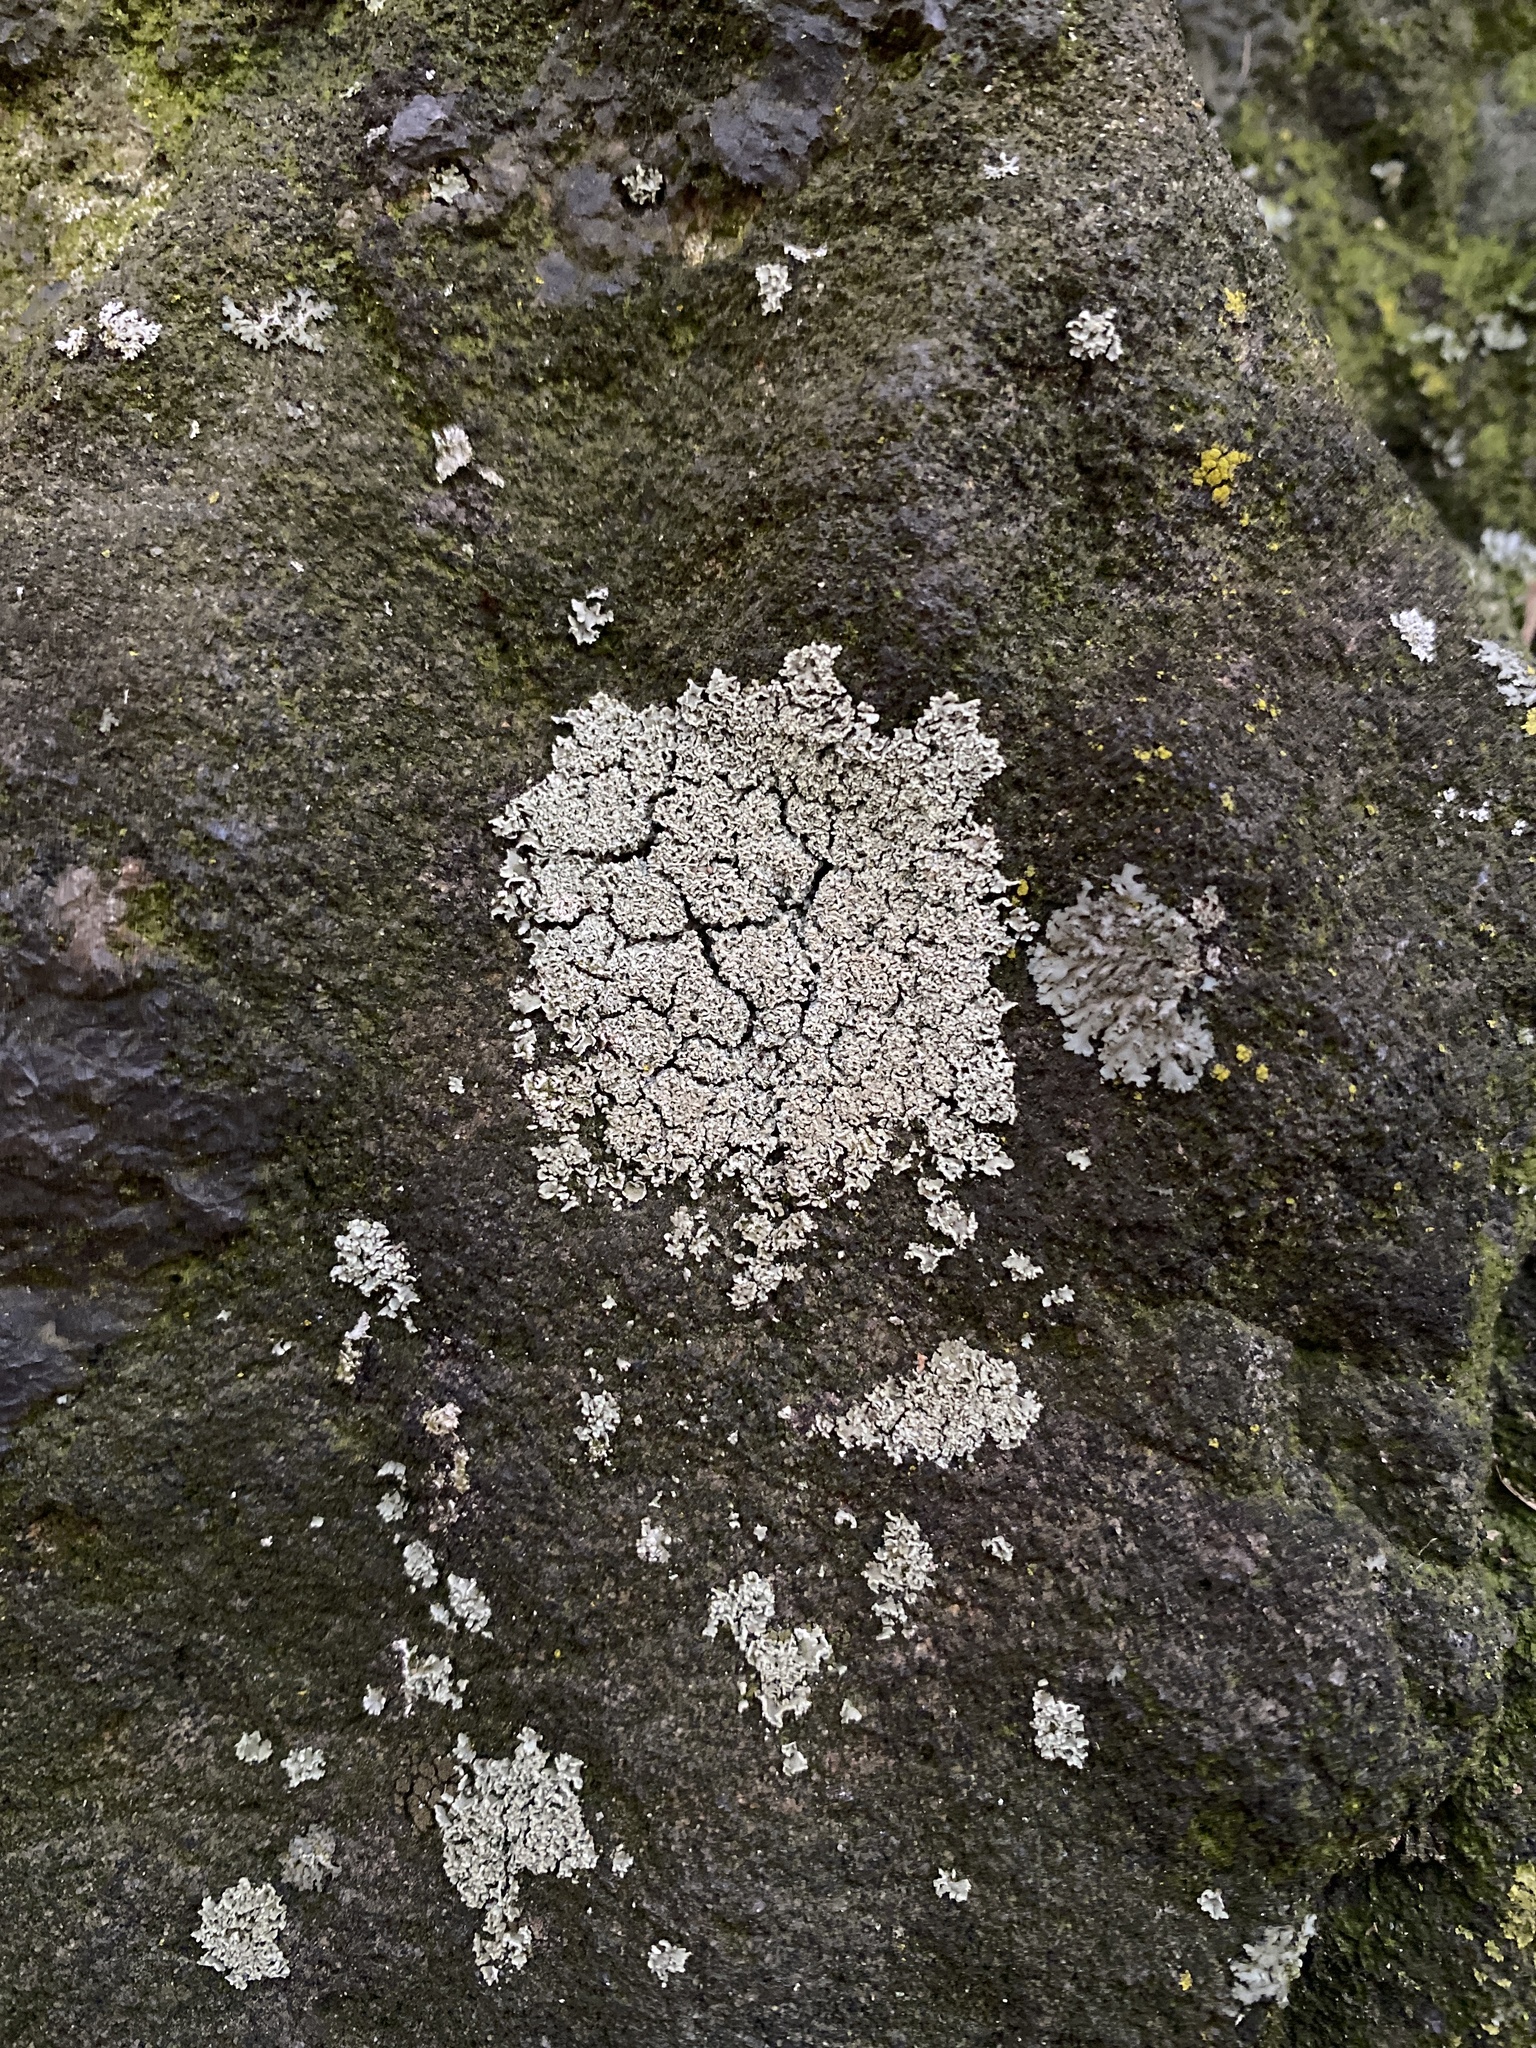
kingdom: Fungi
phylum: Ascomycota
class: Lecanoromycetes
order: Lecanorales
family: Cladoniaceae
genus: Cladonia
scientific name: Cladonia
